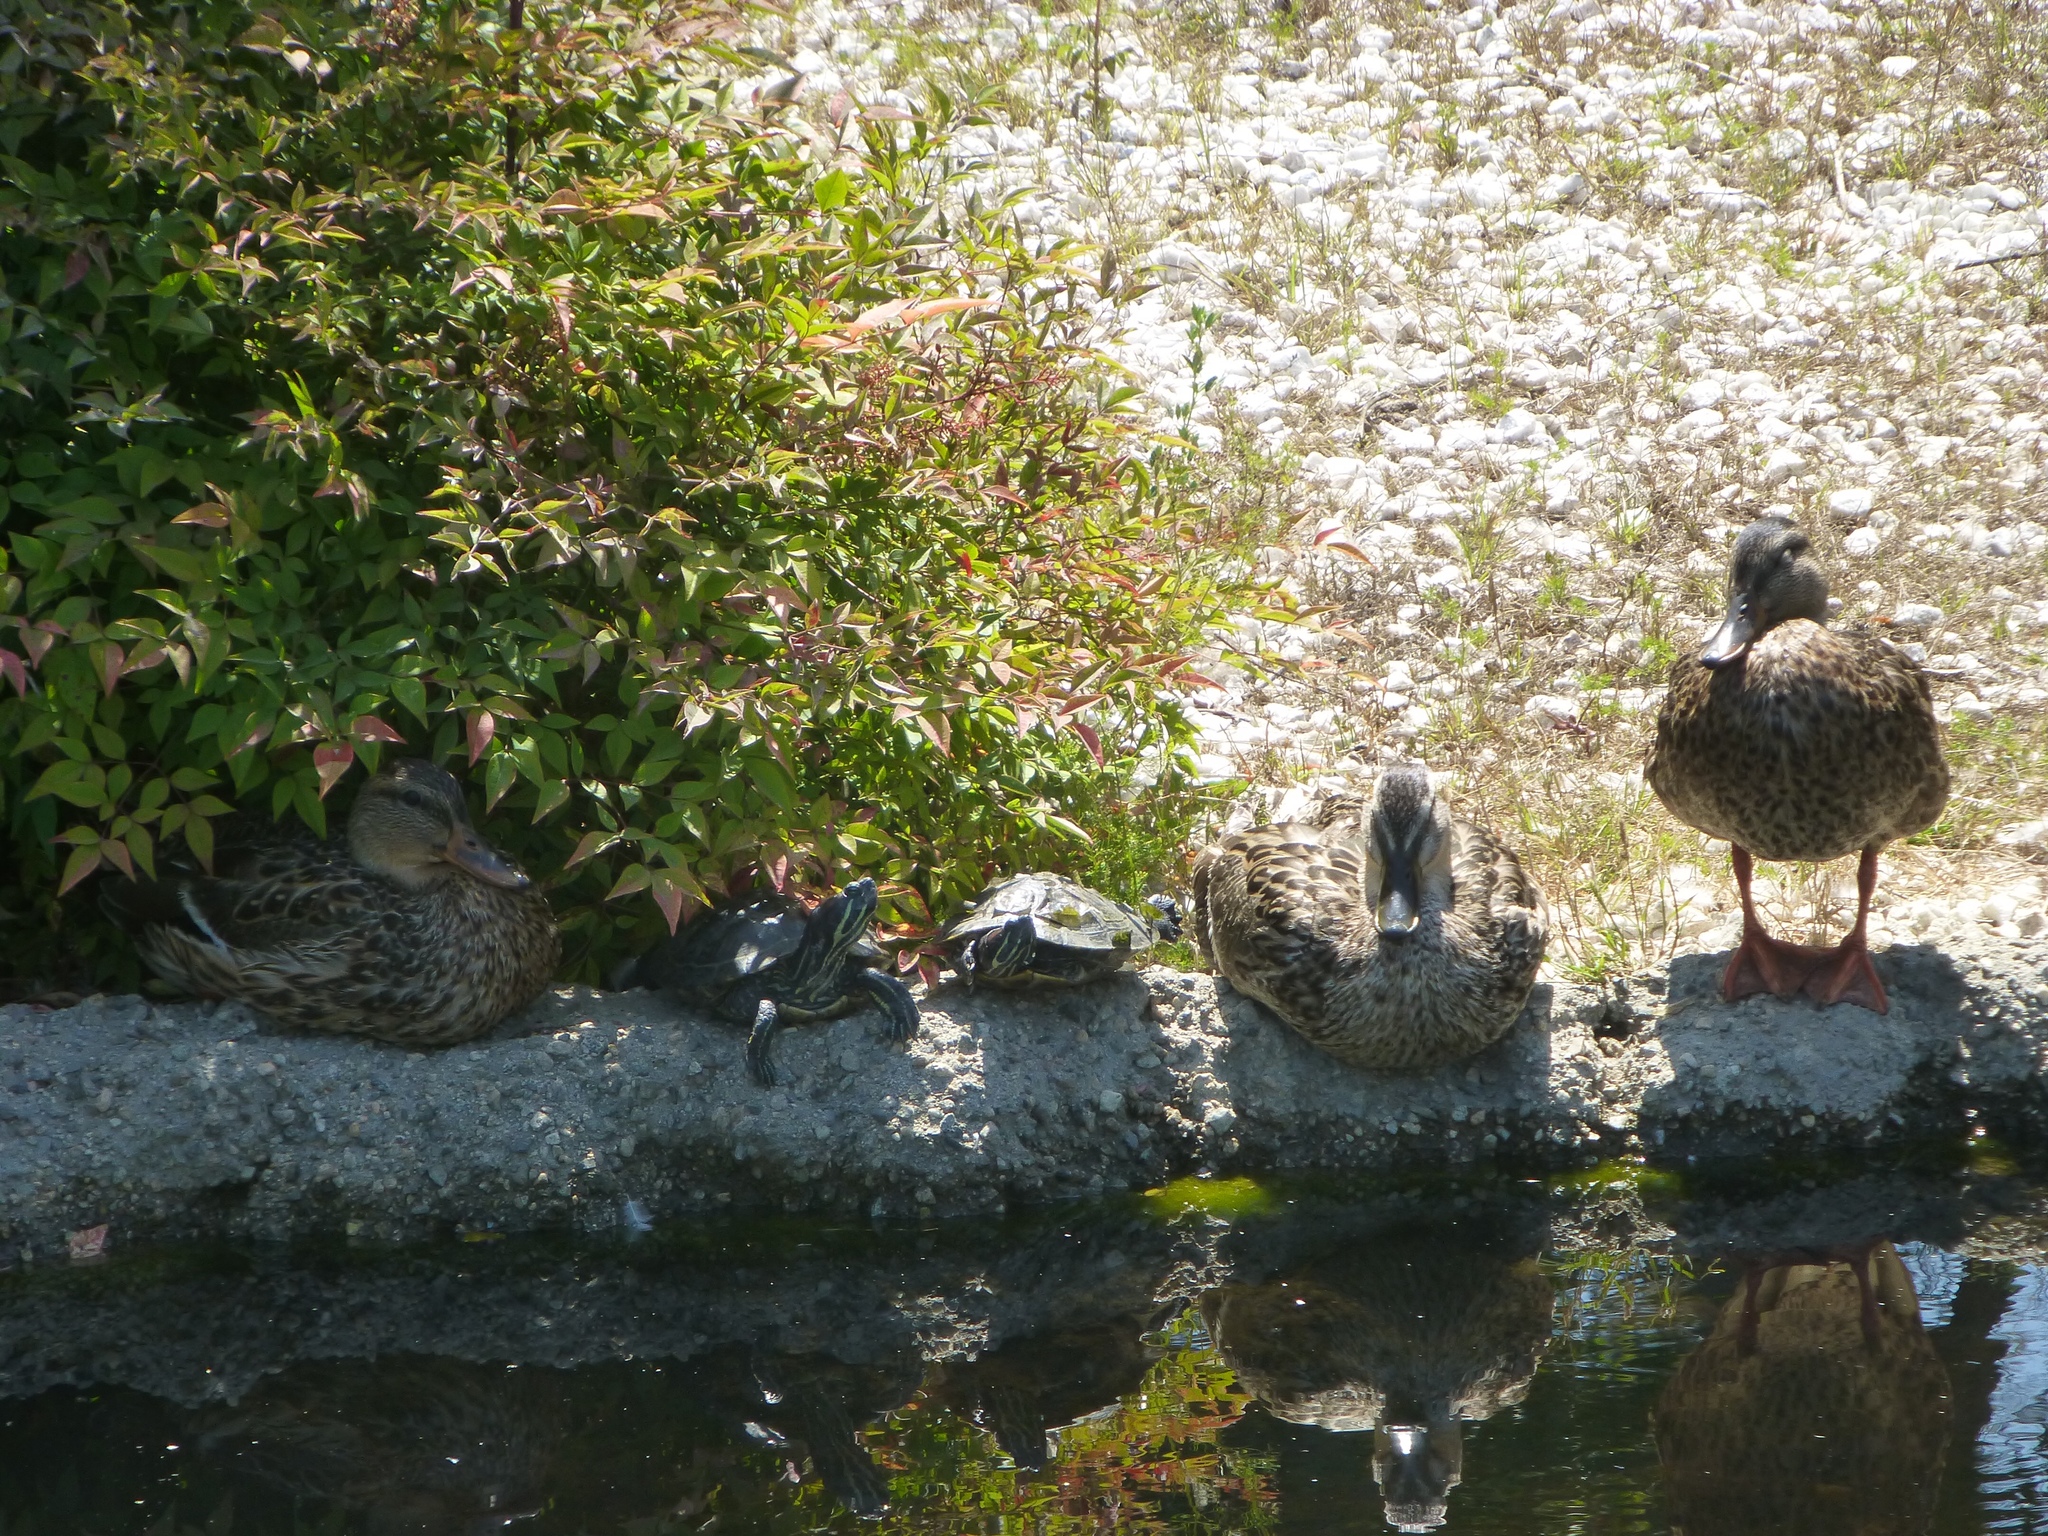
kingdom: Animalia
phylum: Chordata
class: Testudines
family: Emydidae
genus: Trachemys
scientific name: Trachemys scripta
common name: Slider
